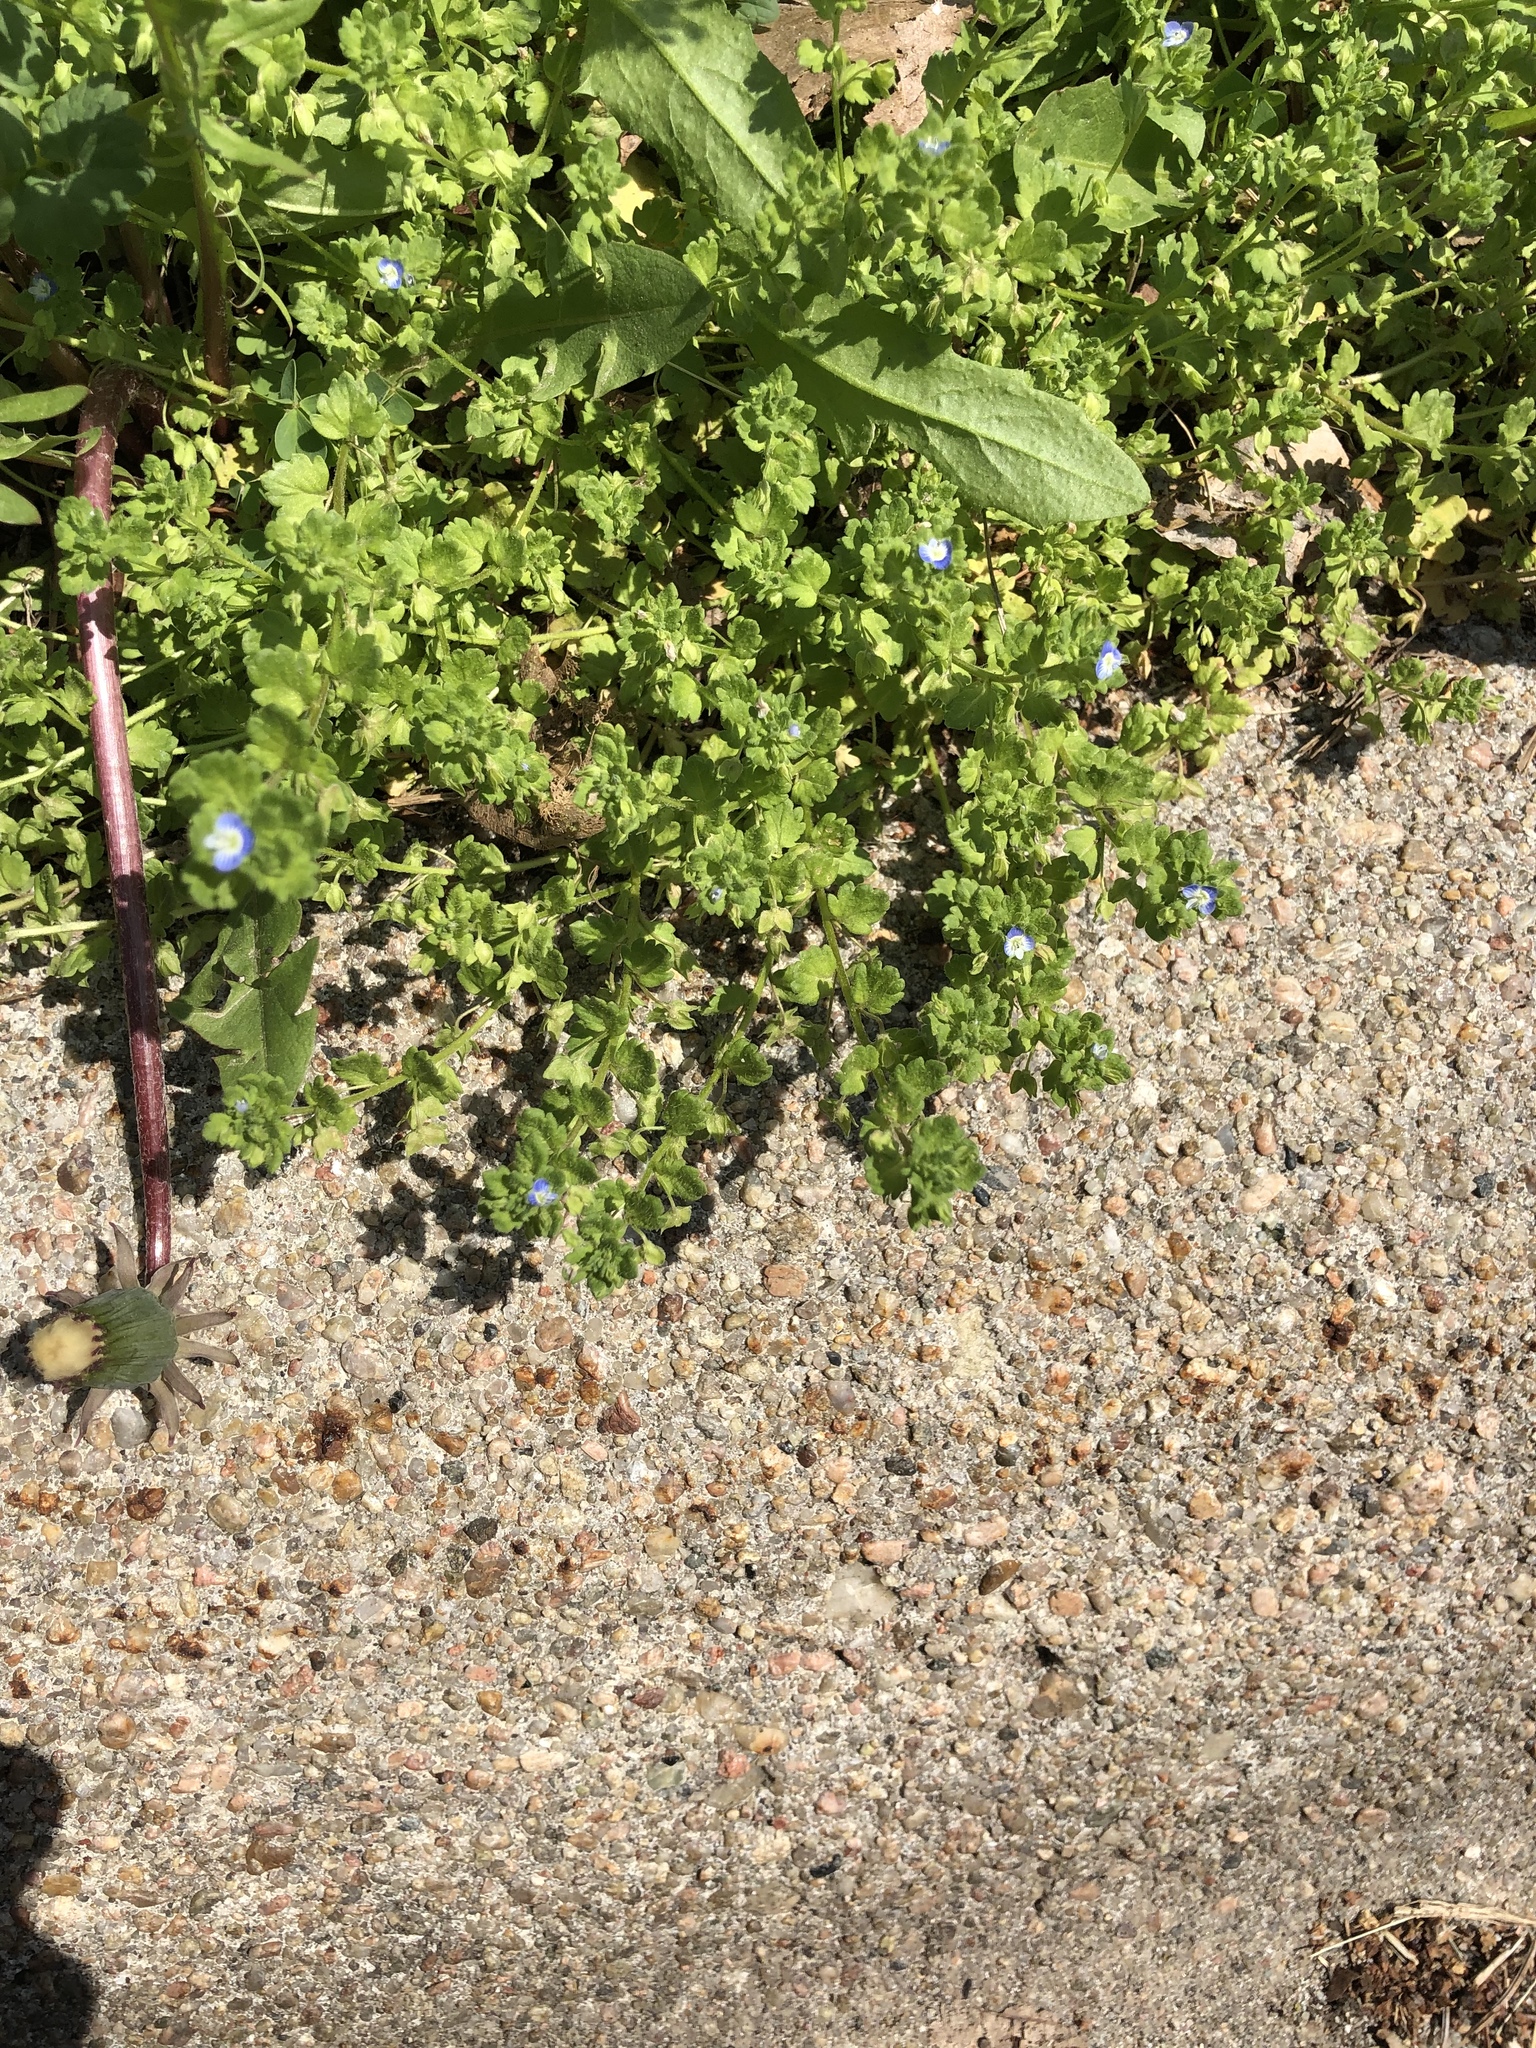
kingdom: Plantae
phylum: Tracheophyta
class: Magnoliopsida
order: Lamiales
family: Plantaginaceae
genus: Veronica
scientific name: Veronica persica
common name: Common field-speedwell
